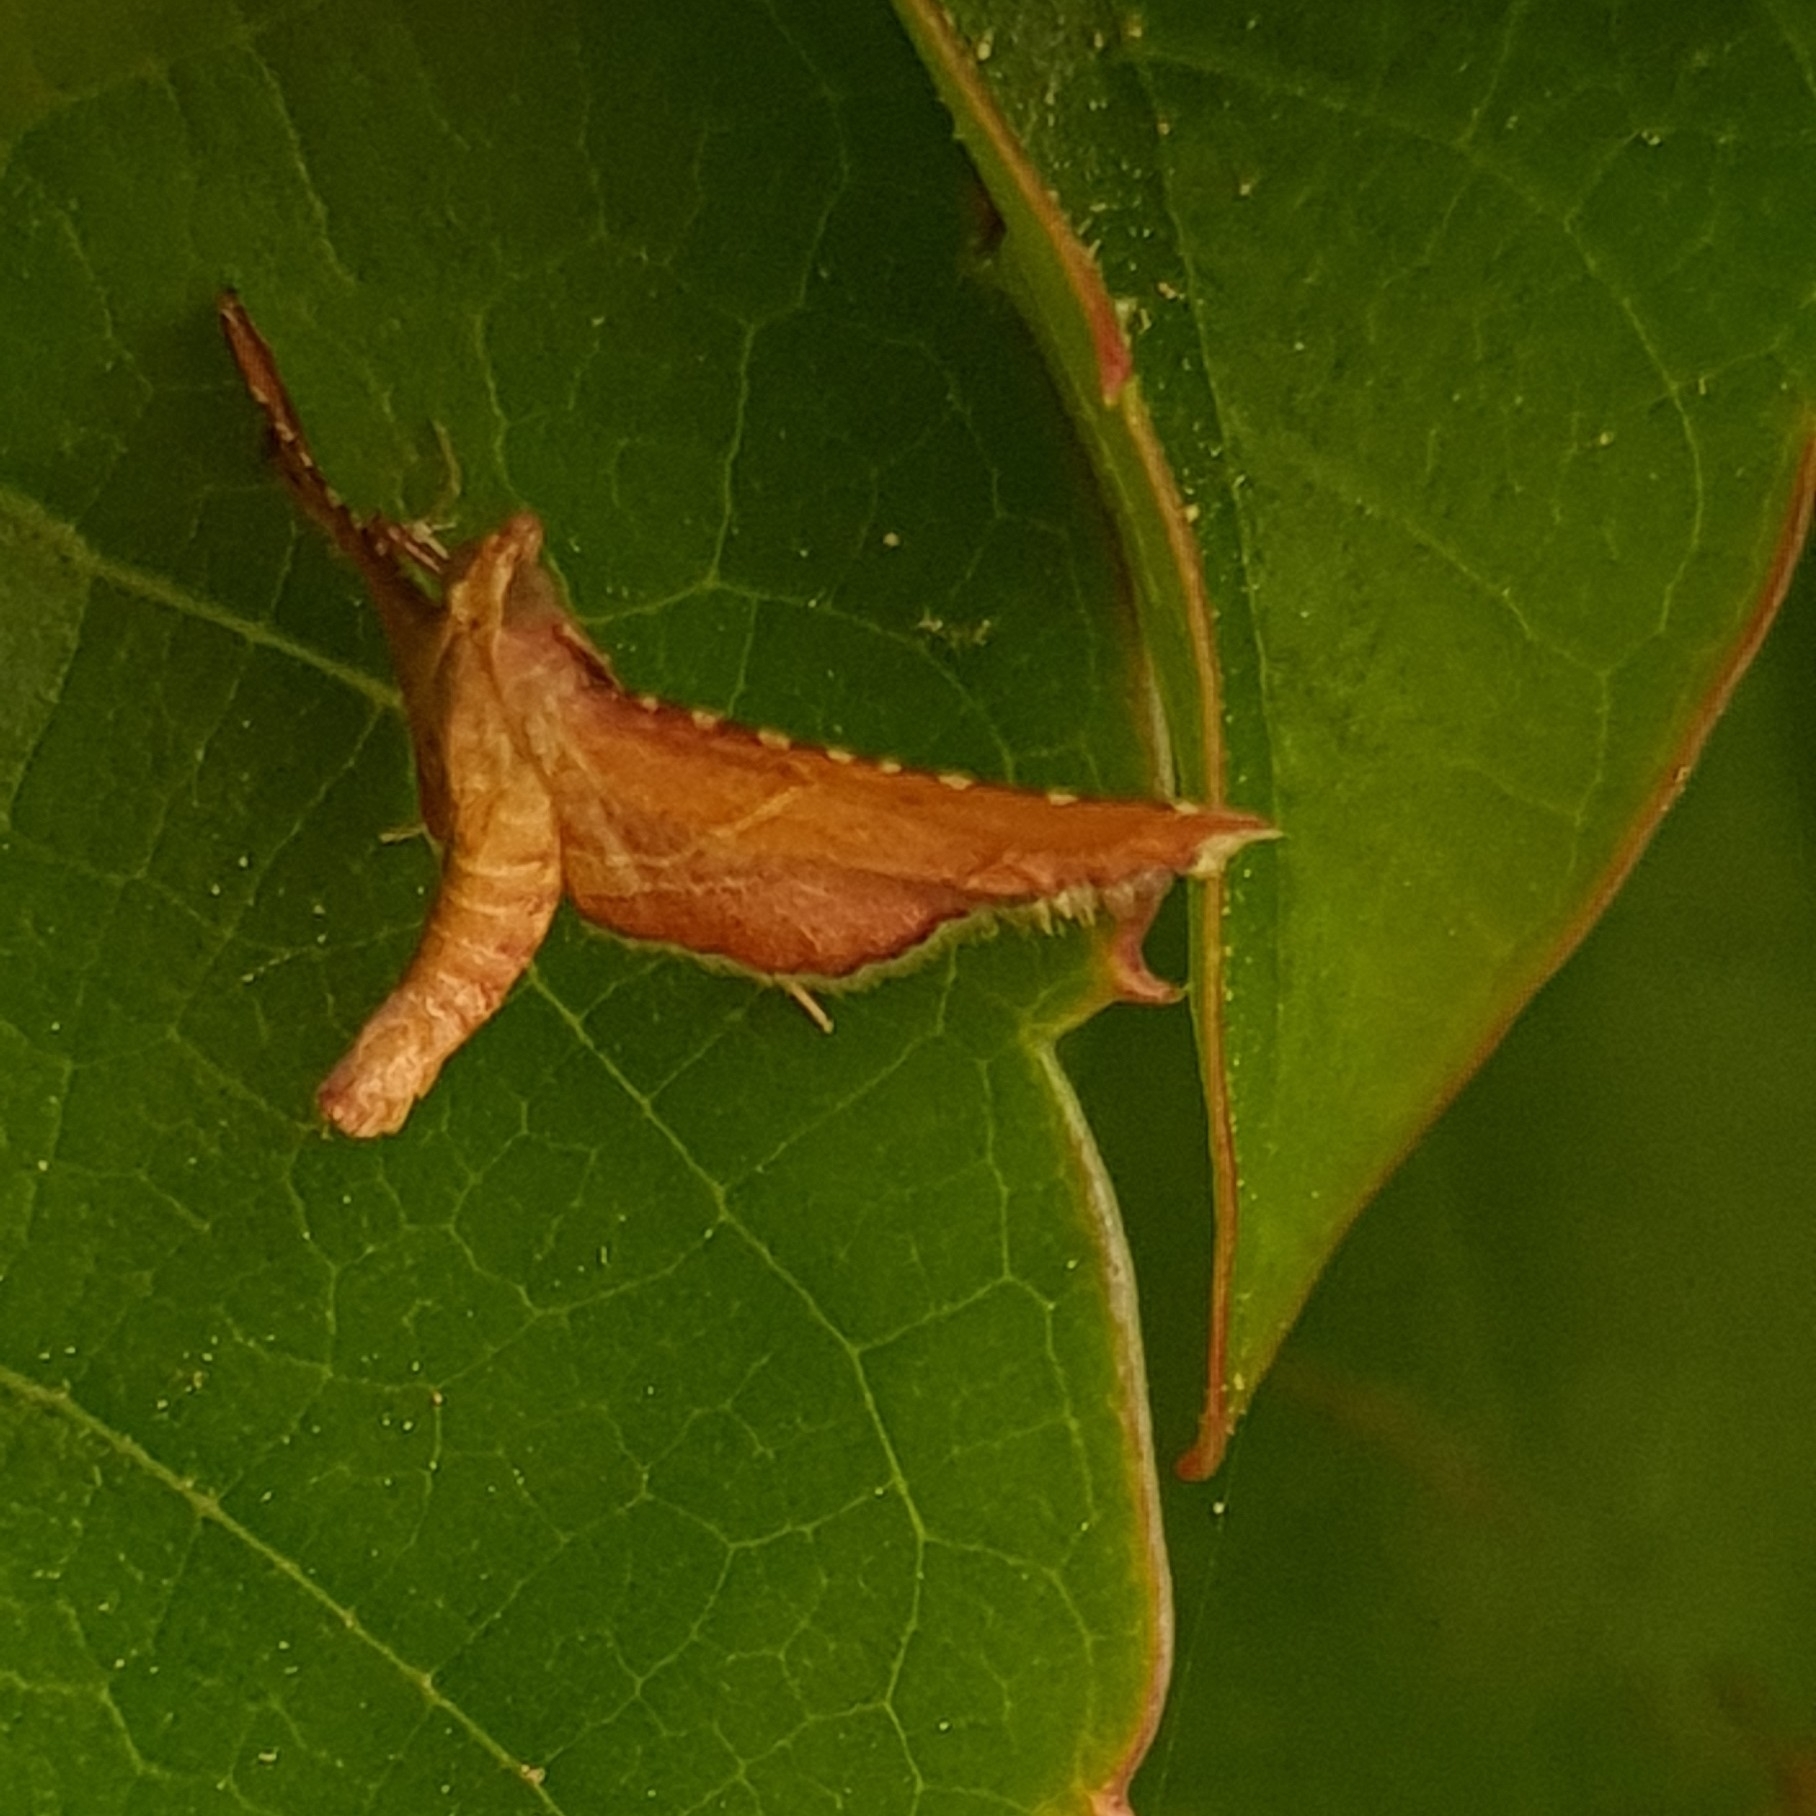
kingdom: Animalia
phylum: Arthropoda
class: Insecta
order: Lepidoptera
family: Pyralidae
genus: Endotricha
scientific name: Endotricha flammealis
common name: Rosy tabby
